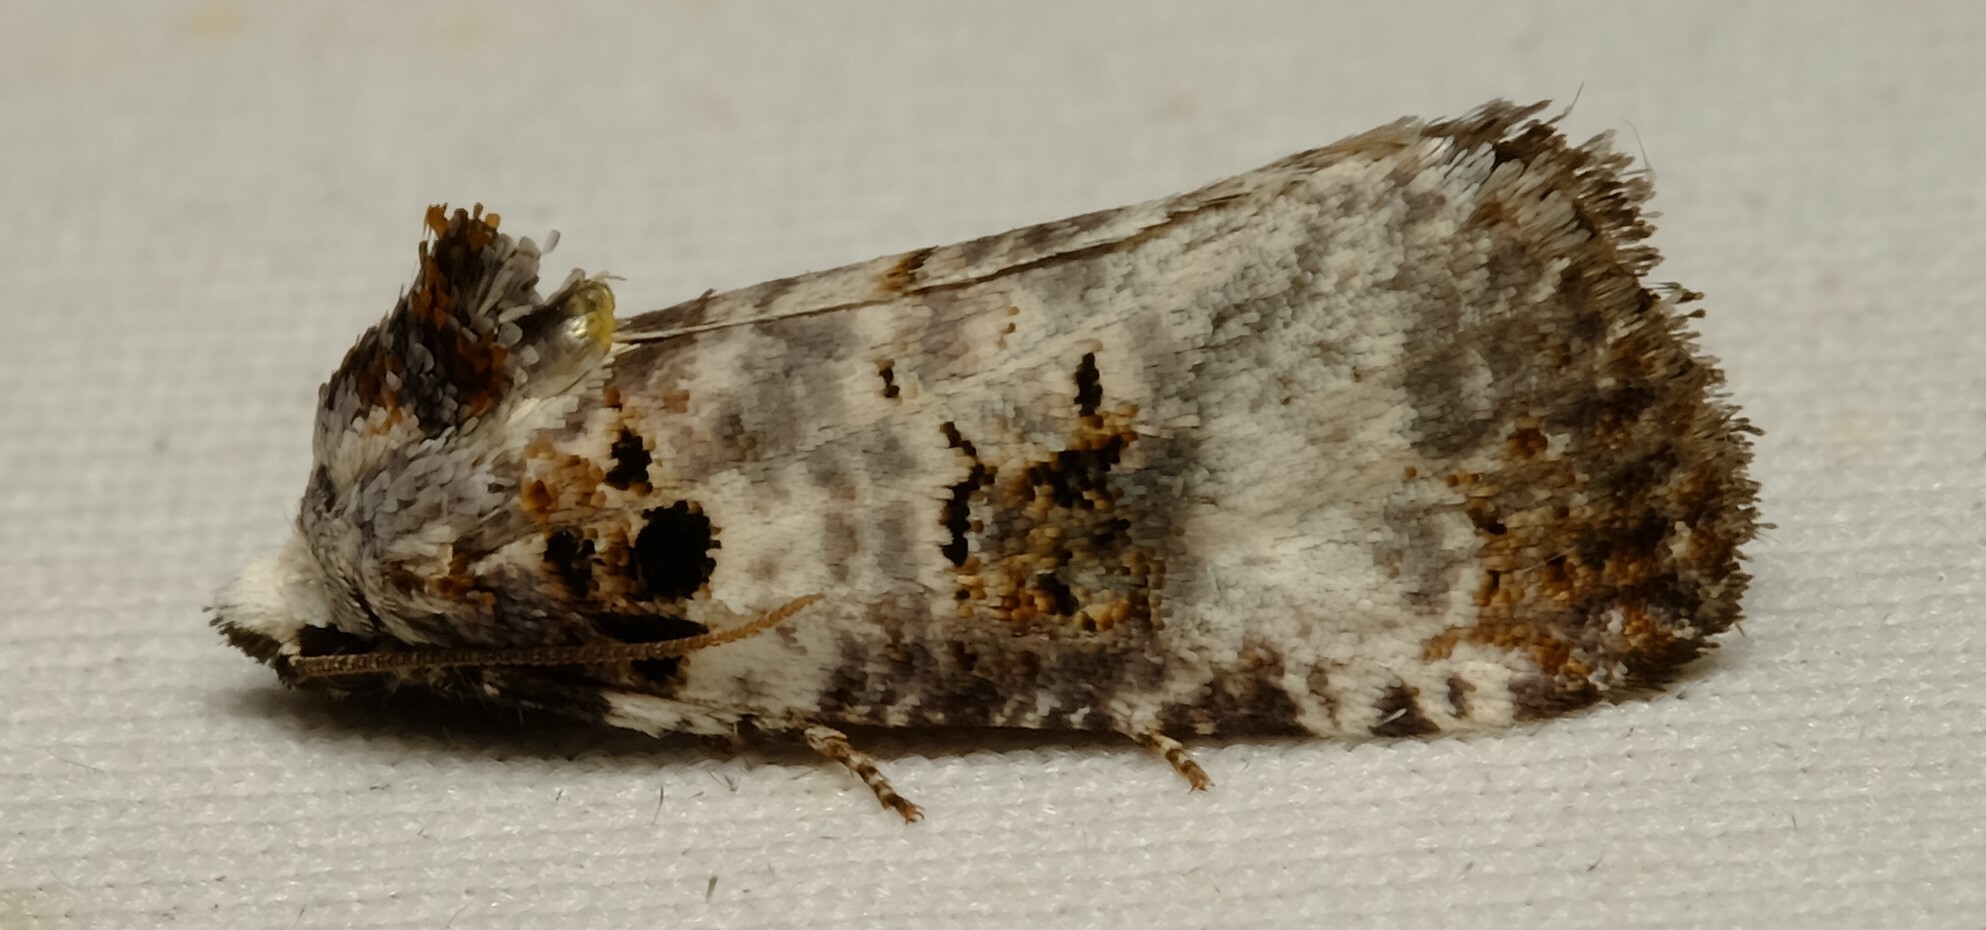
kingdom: Animalia
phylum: Arthropoda
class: Insecta
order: Lepidoptera
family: Cossidae
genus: Idioses
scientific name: Idioses littleri
